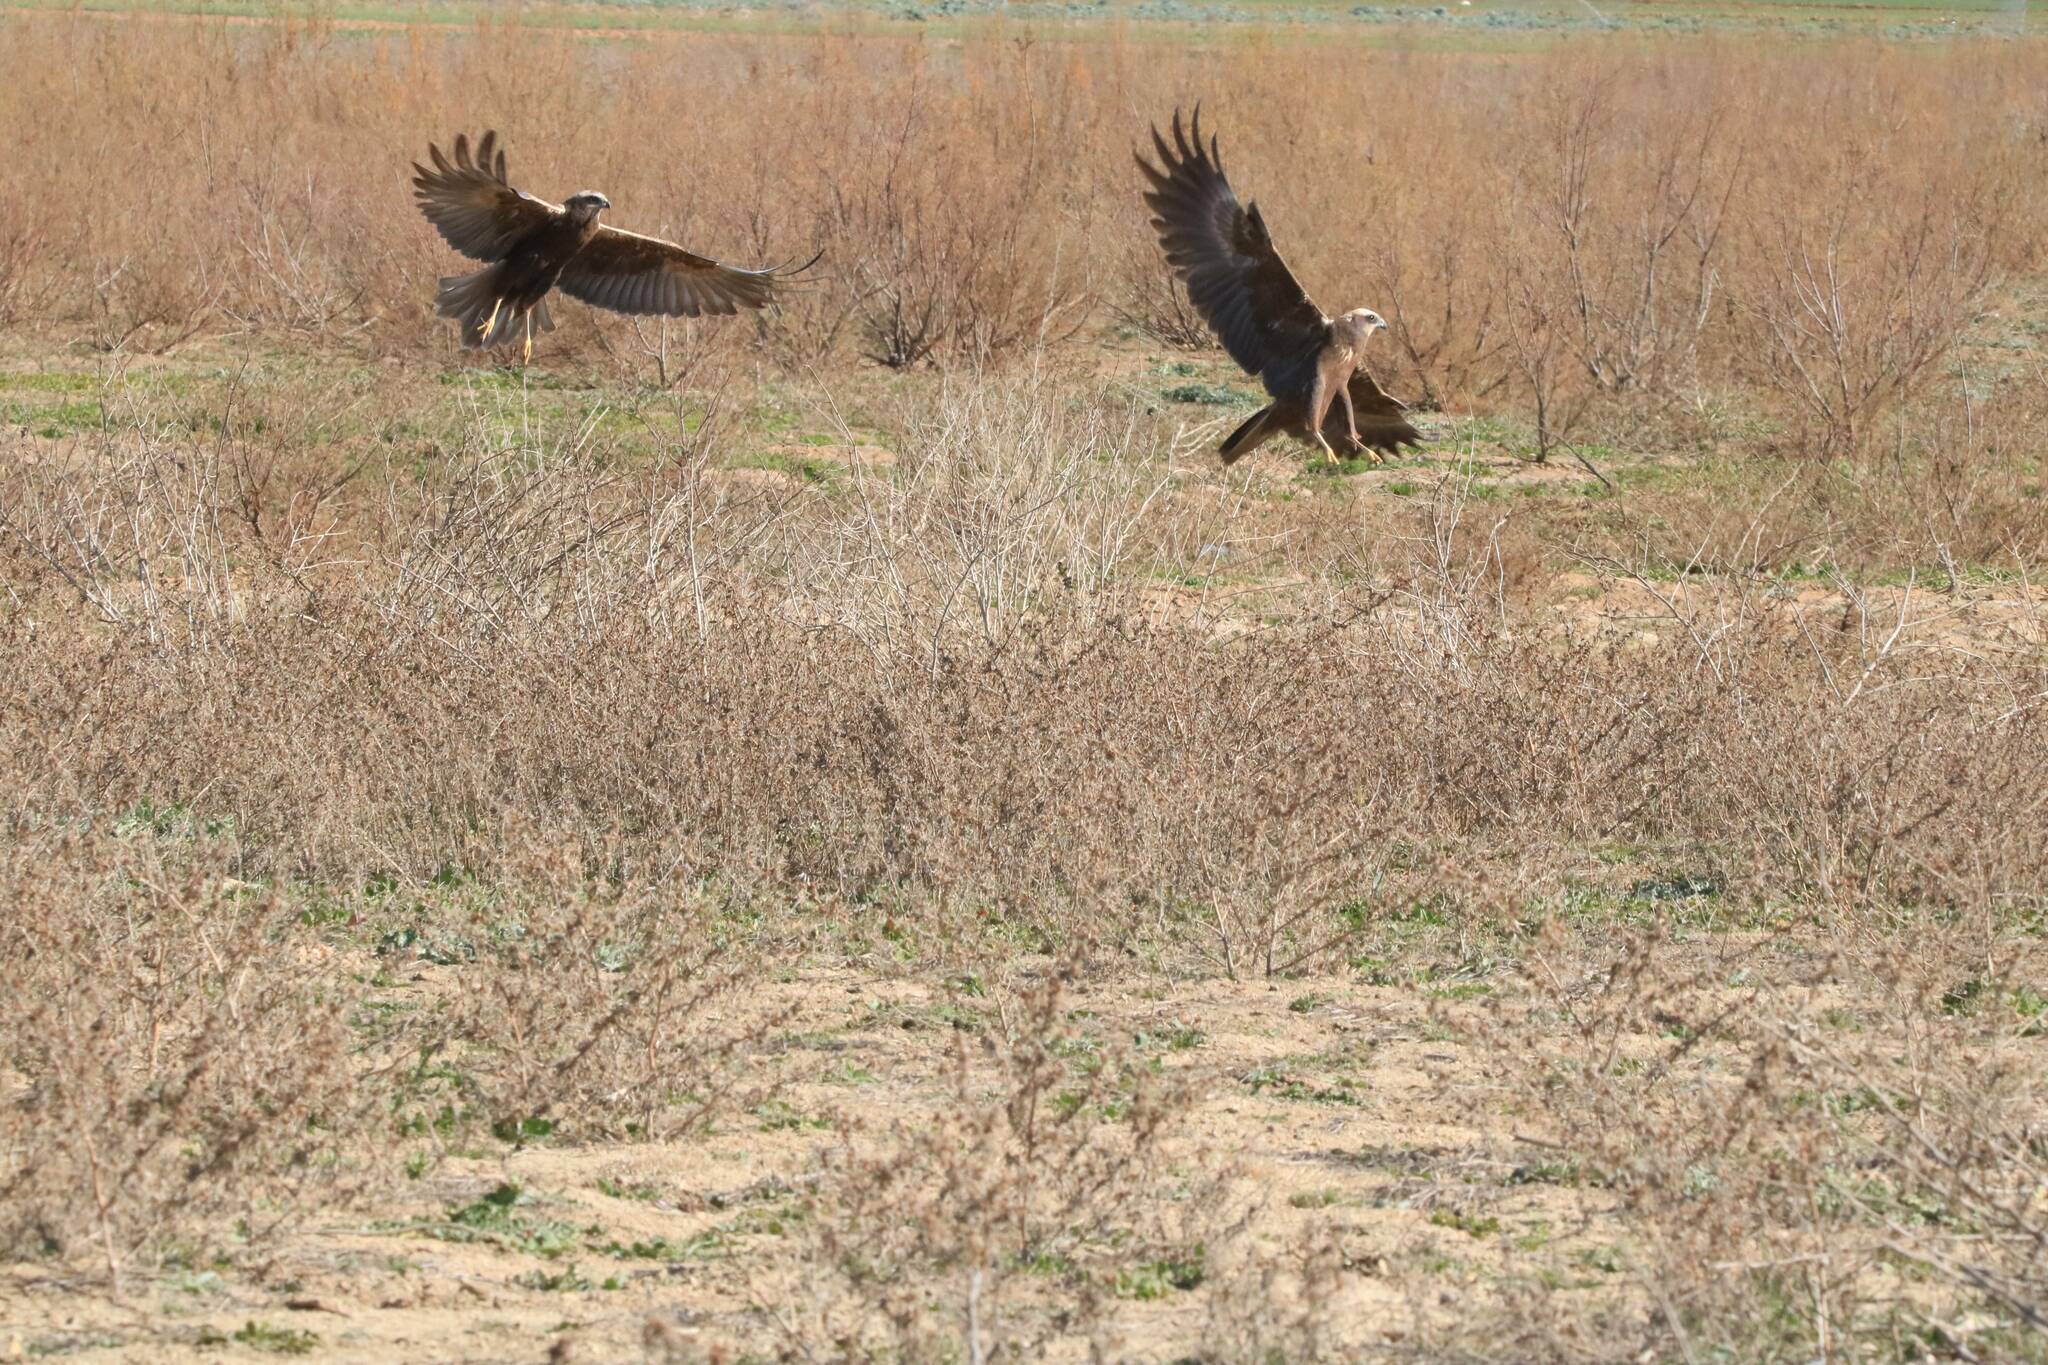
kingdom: Animalia
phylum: Chordata
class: Aves
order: Accipitriformes
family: Accipitridae
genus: Circus
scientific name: Circus aeruginosus
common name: Western marsh harrier
